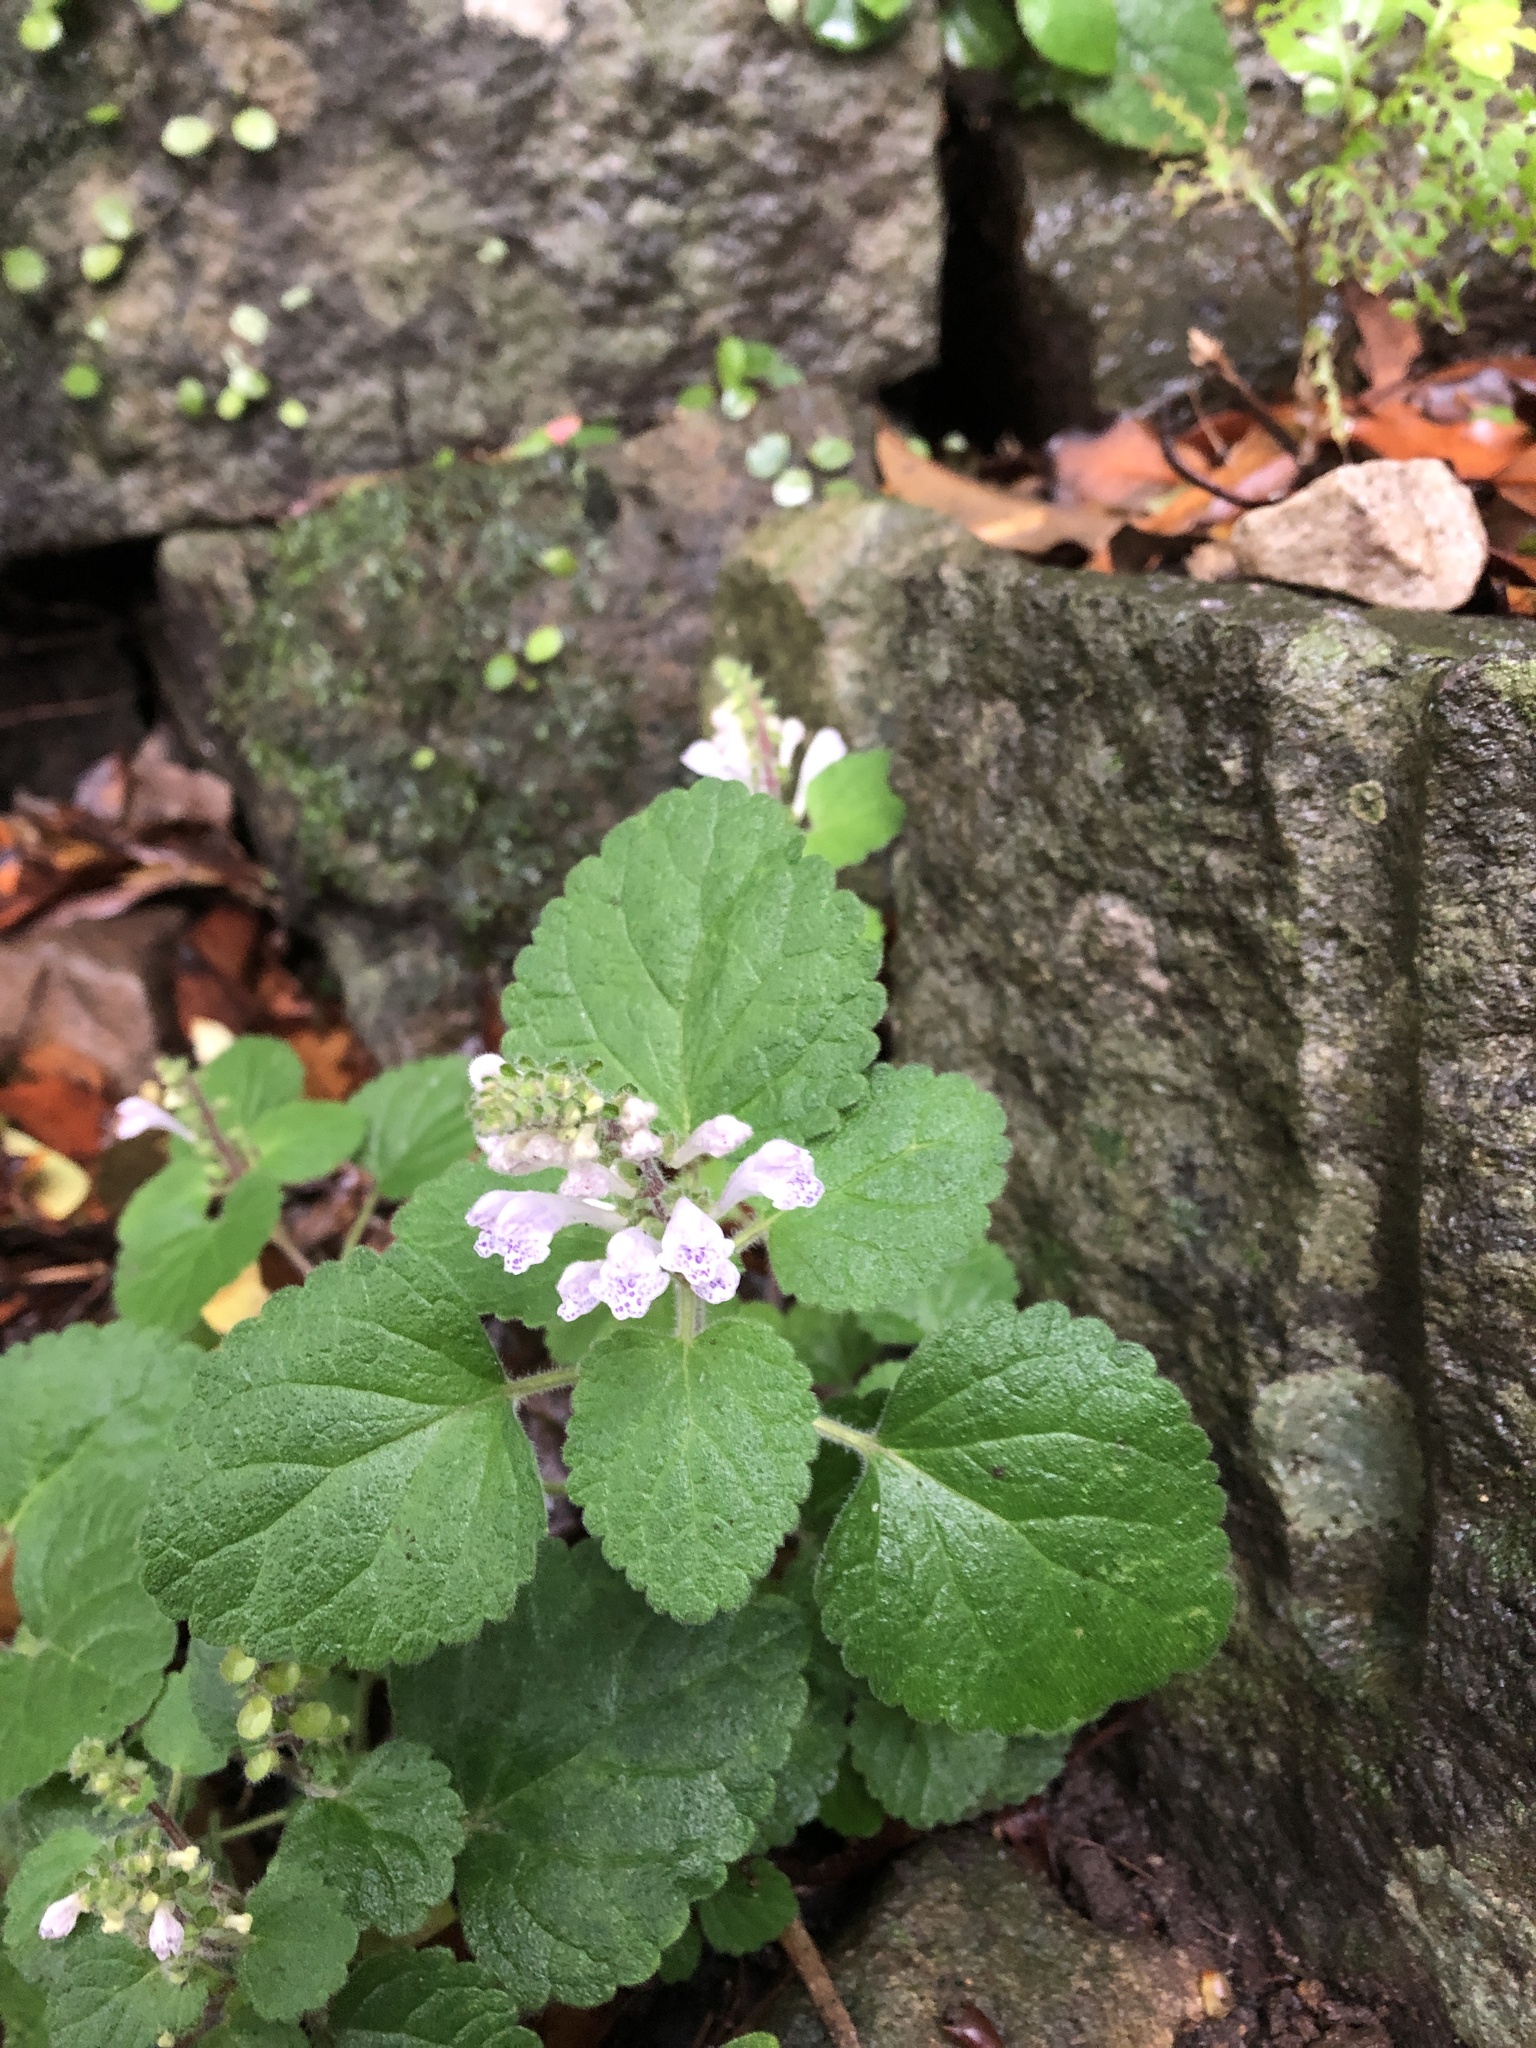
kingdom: Plantae
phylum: Tracheophyta
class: Magnoliopsida
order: Lamiales
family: Lamiaceae
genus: Scutellaria
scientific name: Scutellaria indica
